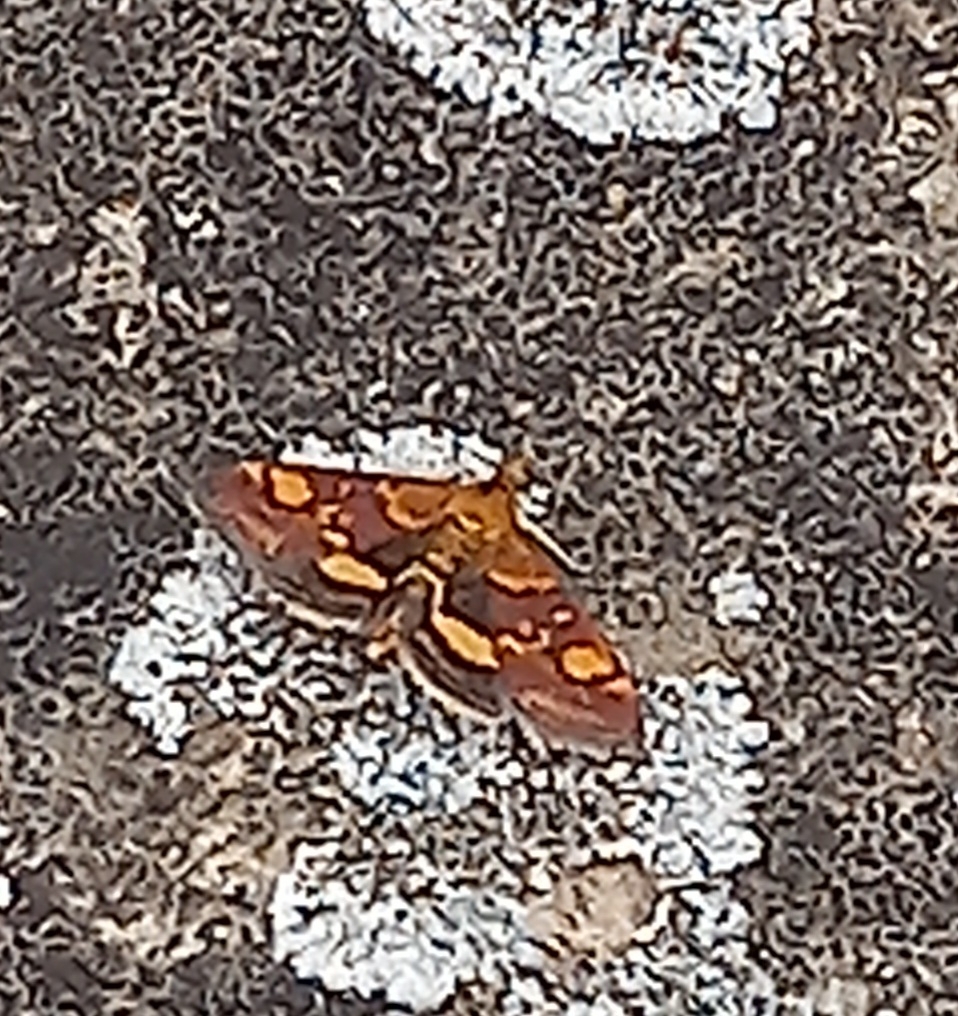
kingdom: Animalia
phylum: Arthropoda
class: Insecta
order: Lepidoptera
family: Crambidae
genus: Pyrausta
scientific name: Pyrausta aurata
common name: Small purple & gold
